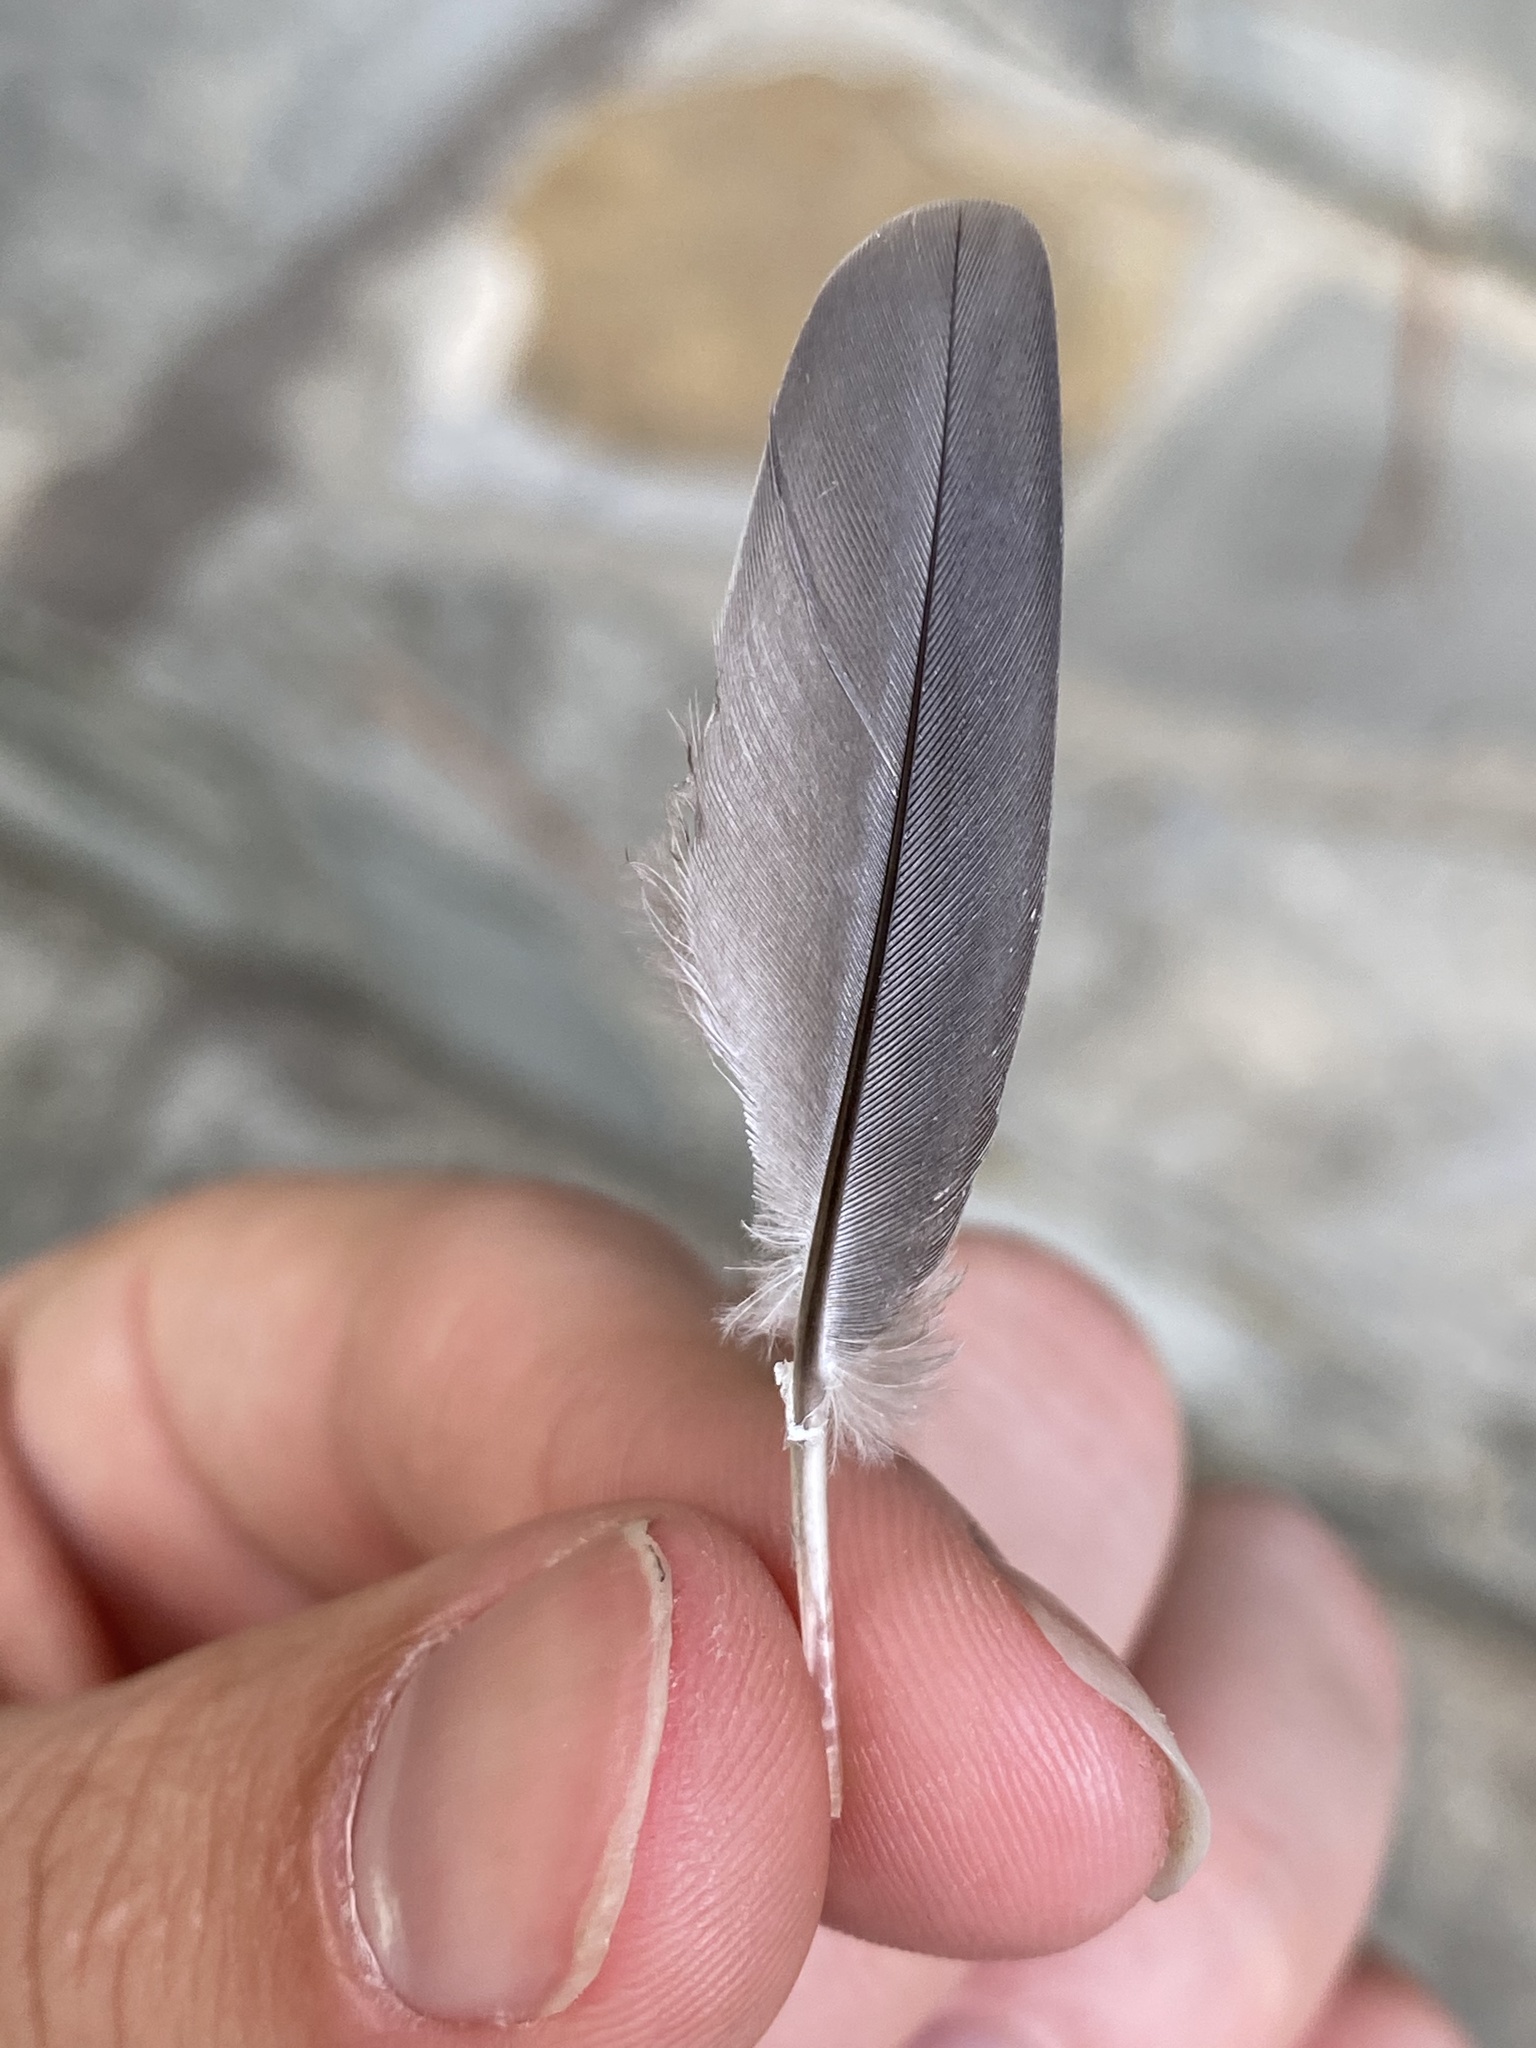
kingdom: Animalia
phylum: Chordata
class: Aves
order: Columbiformes
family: Columbidae
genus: Zenaida
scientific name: Zenaida macroura
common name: Mourning dove
